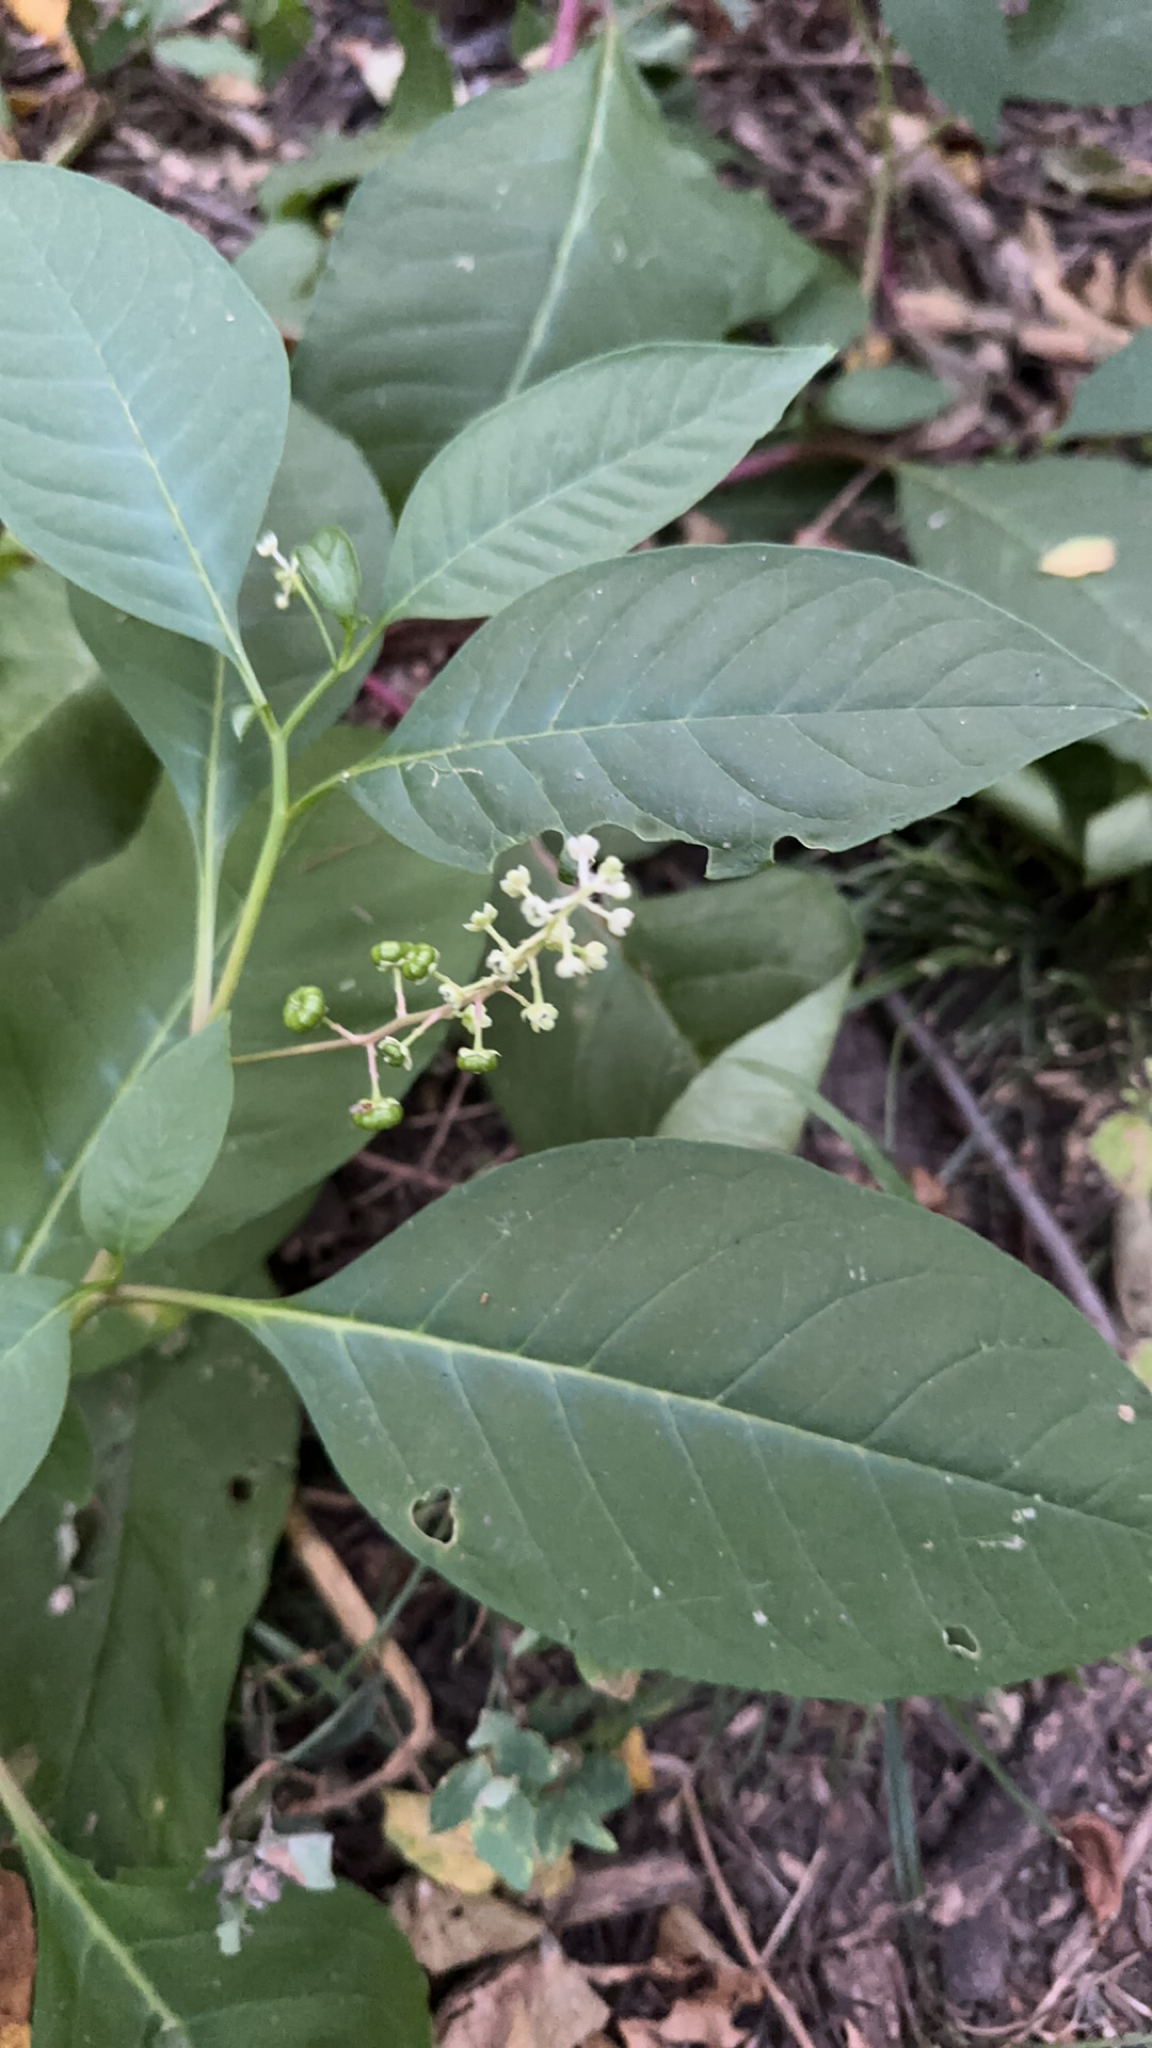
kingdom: Plantae
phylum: Tracheophyta
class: Magnoliopsida
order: Caryophyllales
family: Phytolaccaceae
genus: Phytolacca
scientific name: Phytolacca americana
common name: American pokeweed
